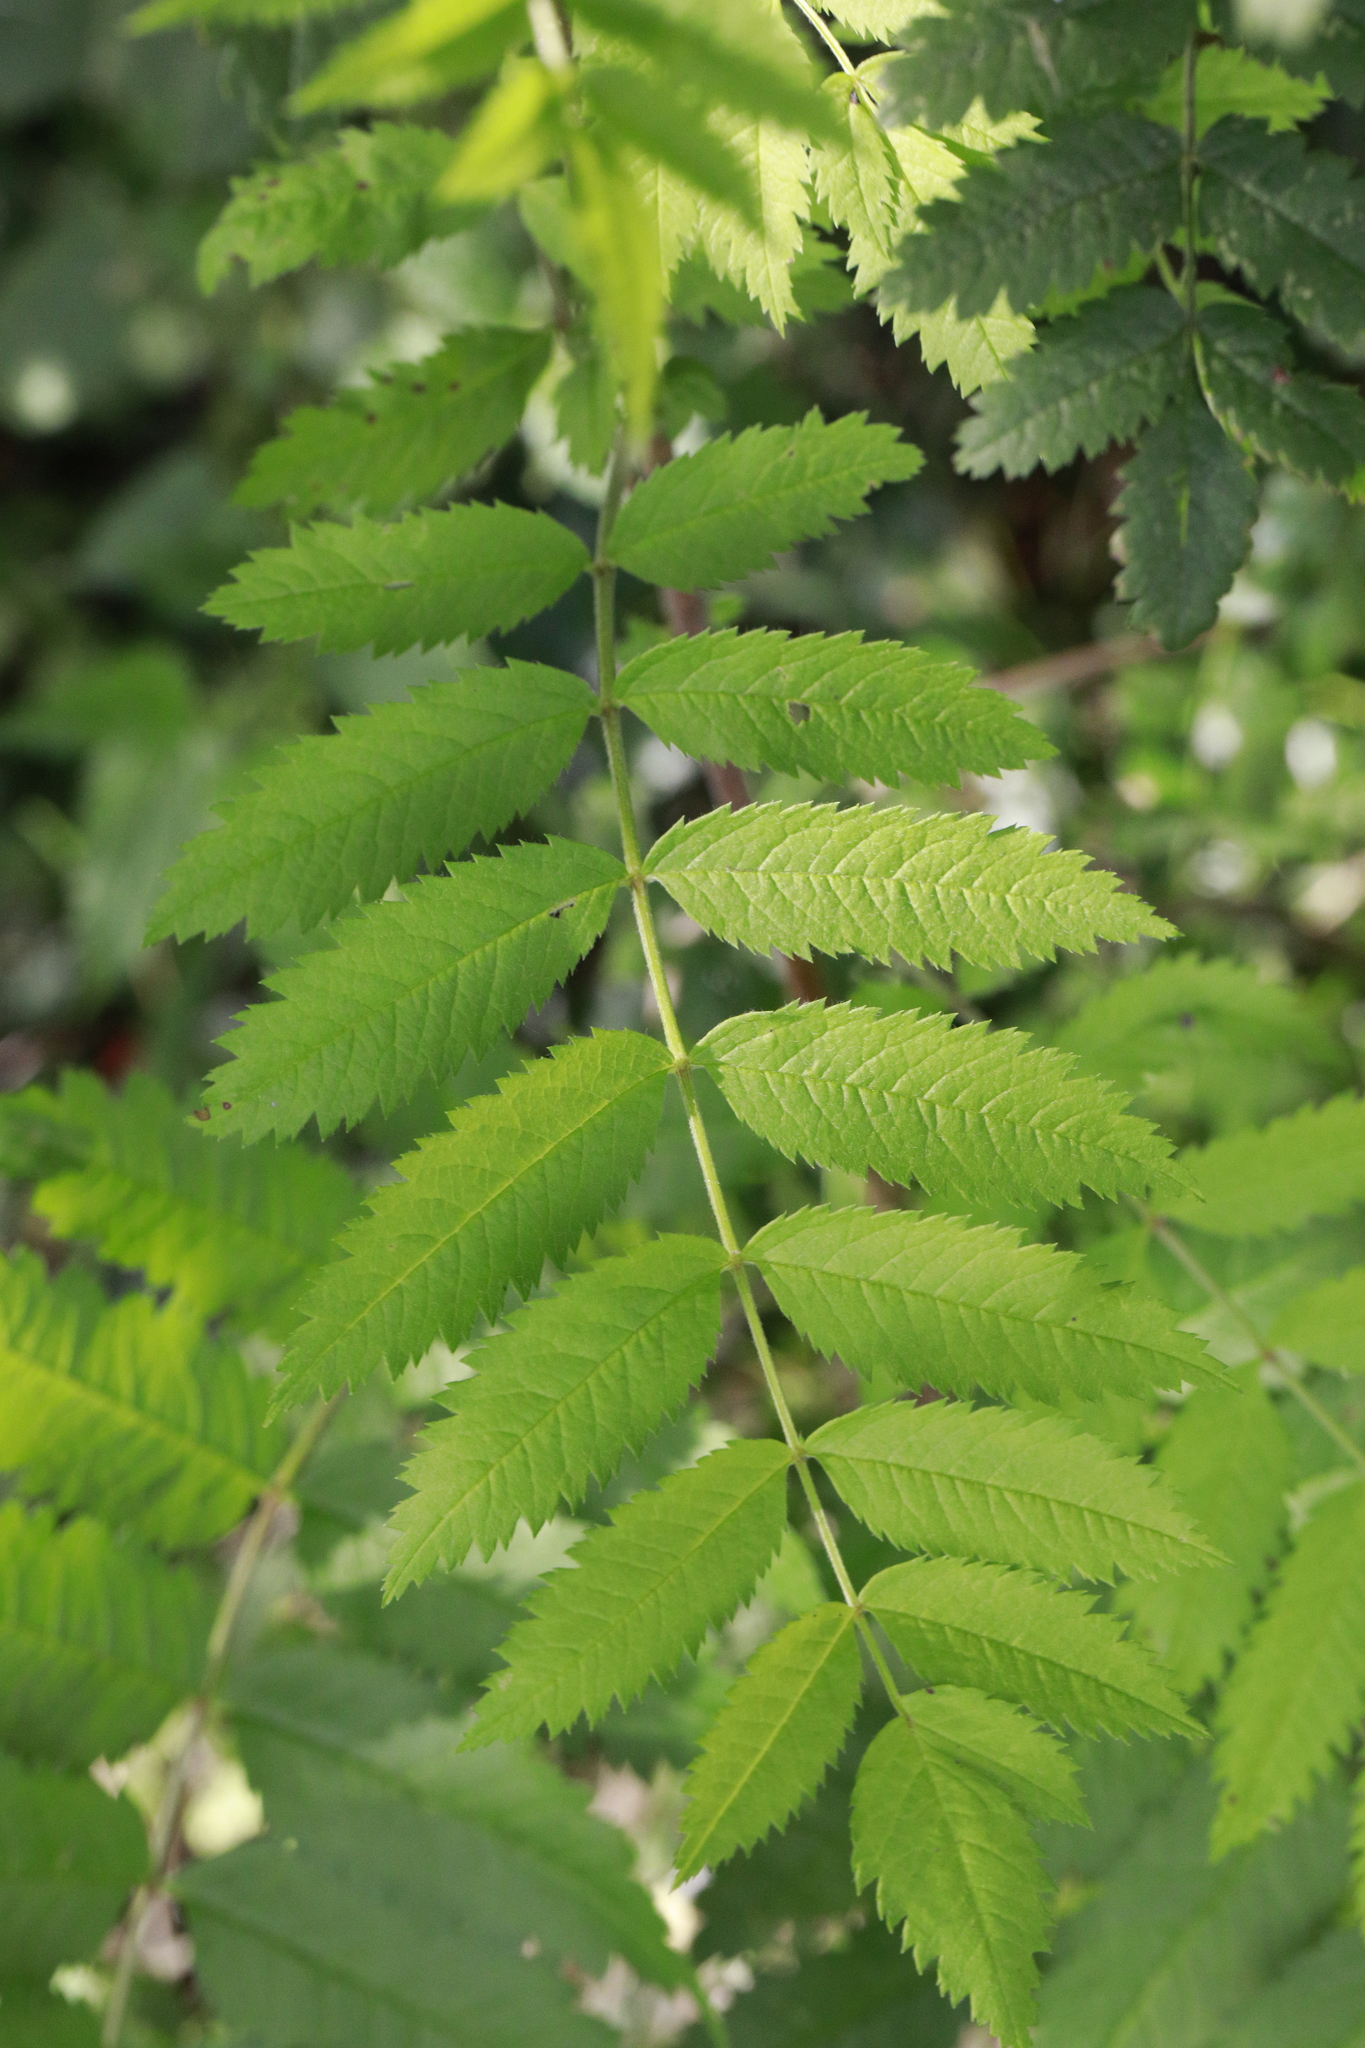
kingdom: Plantae
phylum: Tracheophyta
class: Magnoliopsida
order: Rosales
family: Rosaceae
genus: Sorbus
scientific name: Sorbus aucuparia
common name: Rowan
